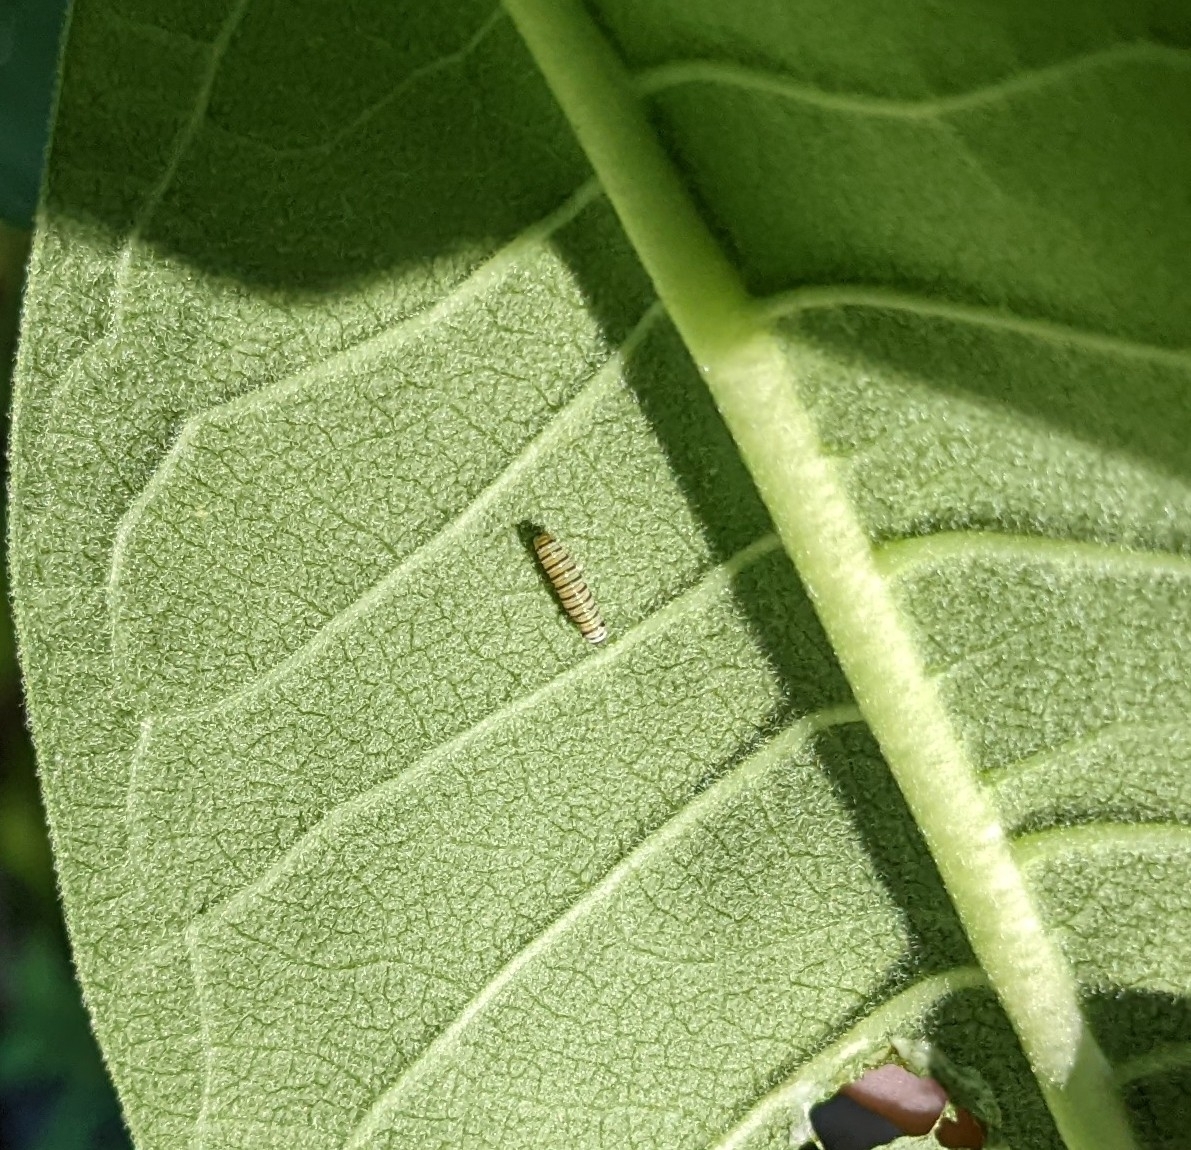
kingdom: Animalia
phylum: Arthropoda
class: Insecta
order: Lepidoptera
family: Nymphalidae
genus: Danaus
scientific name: Danaus plexippus
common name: Monarch
